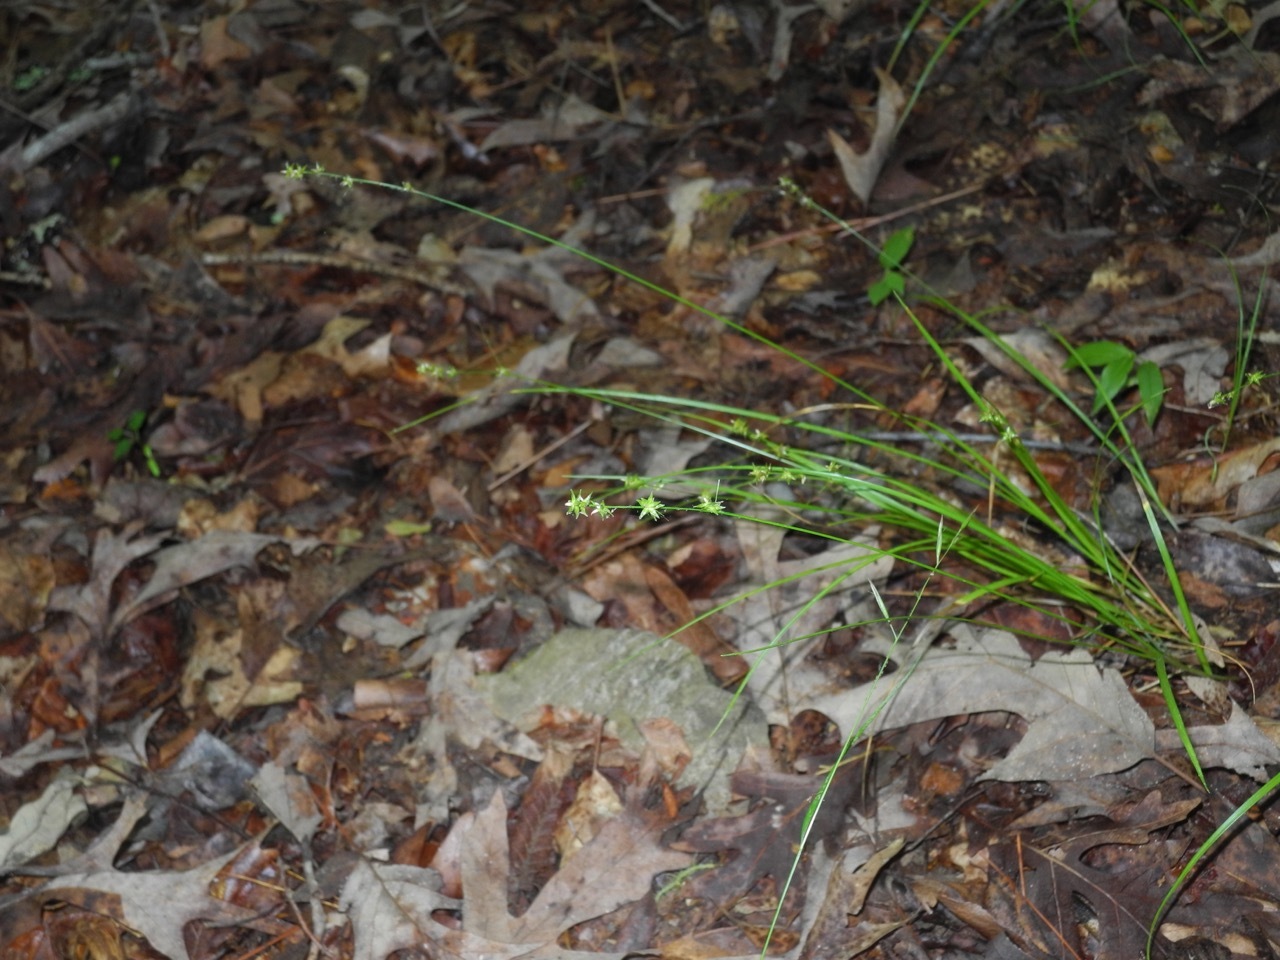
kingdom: Plantae
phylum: Tracheophyta
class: Liliopsida
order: Poales
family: Cyperaceae
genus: Carex
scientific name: Carex rosea
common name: Curly-styled wood sedge
